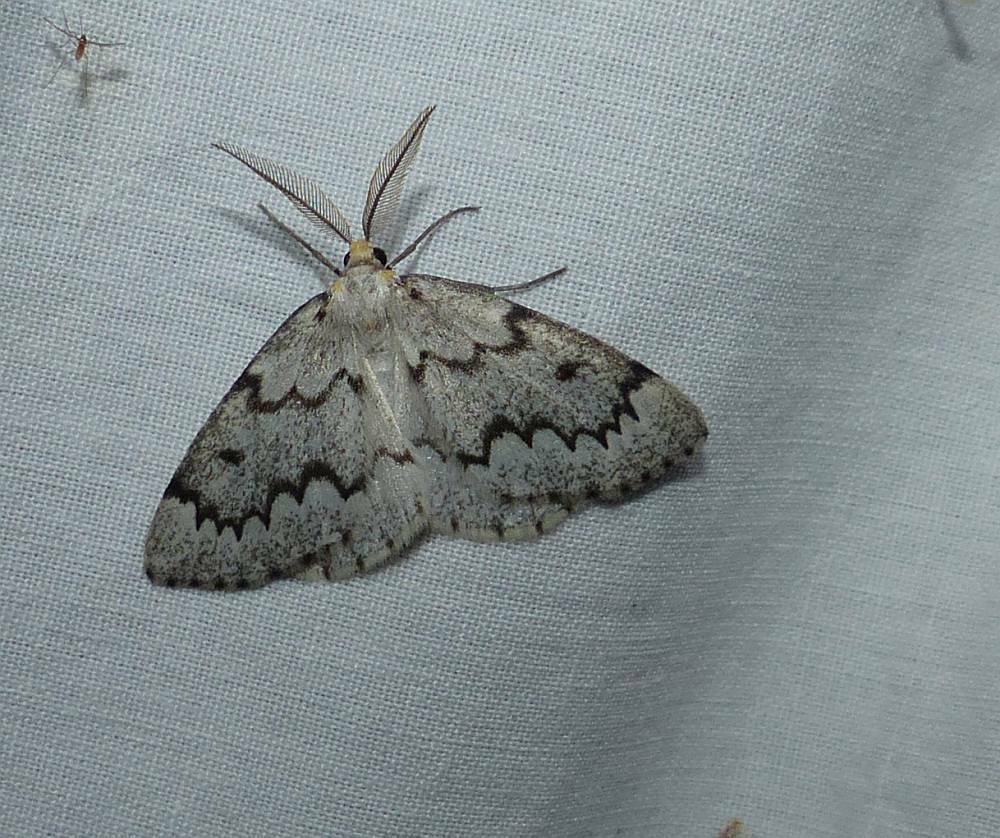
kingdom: Animalia
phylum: Arthropoda
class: Insecta
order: Lepidoptera
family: Geometridae
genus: Nepytia
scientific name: Nepytia canosaria
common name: False hemlock looper
